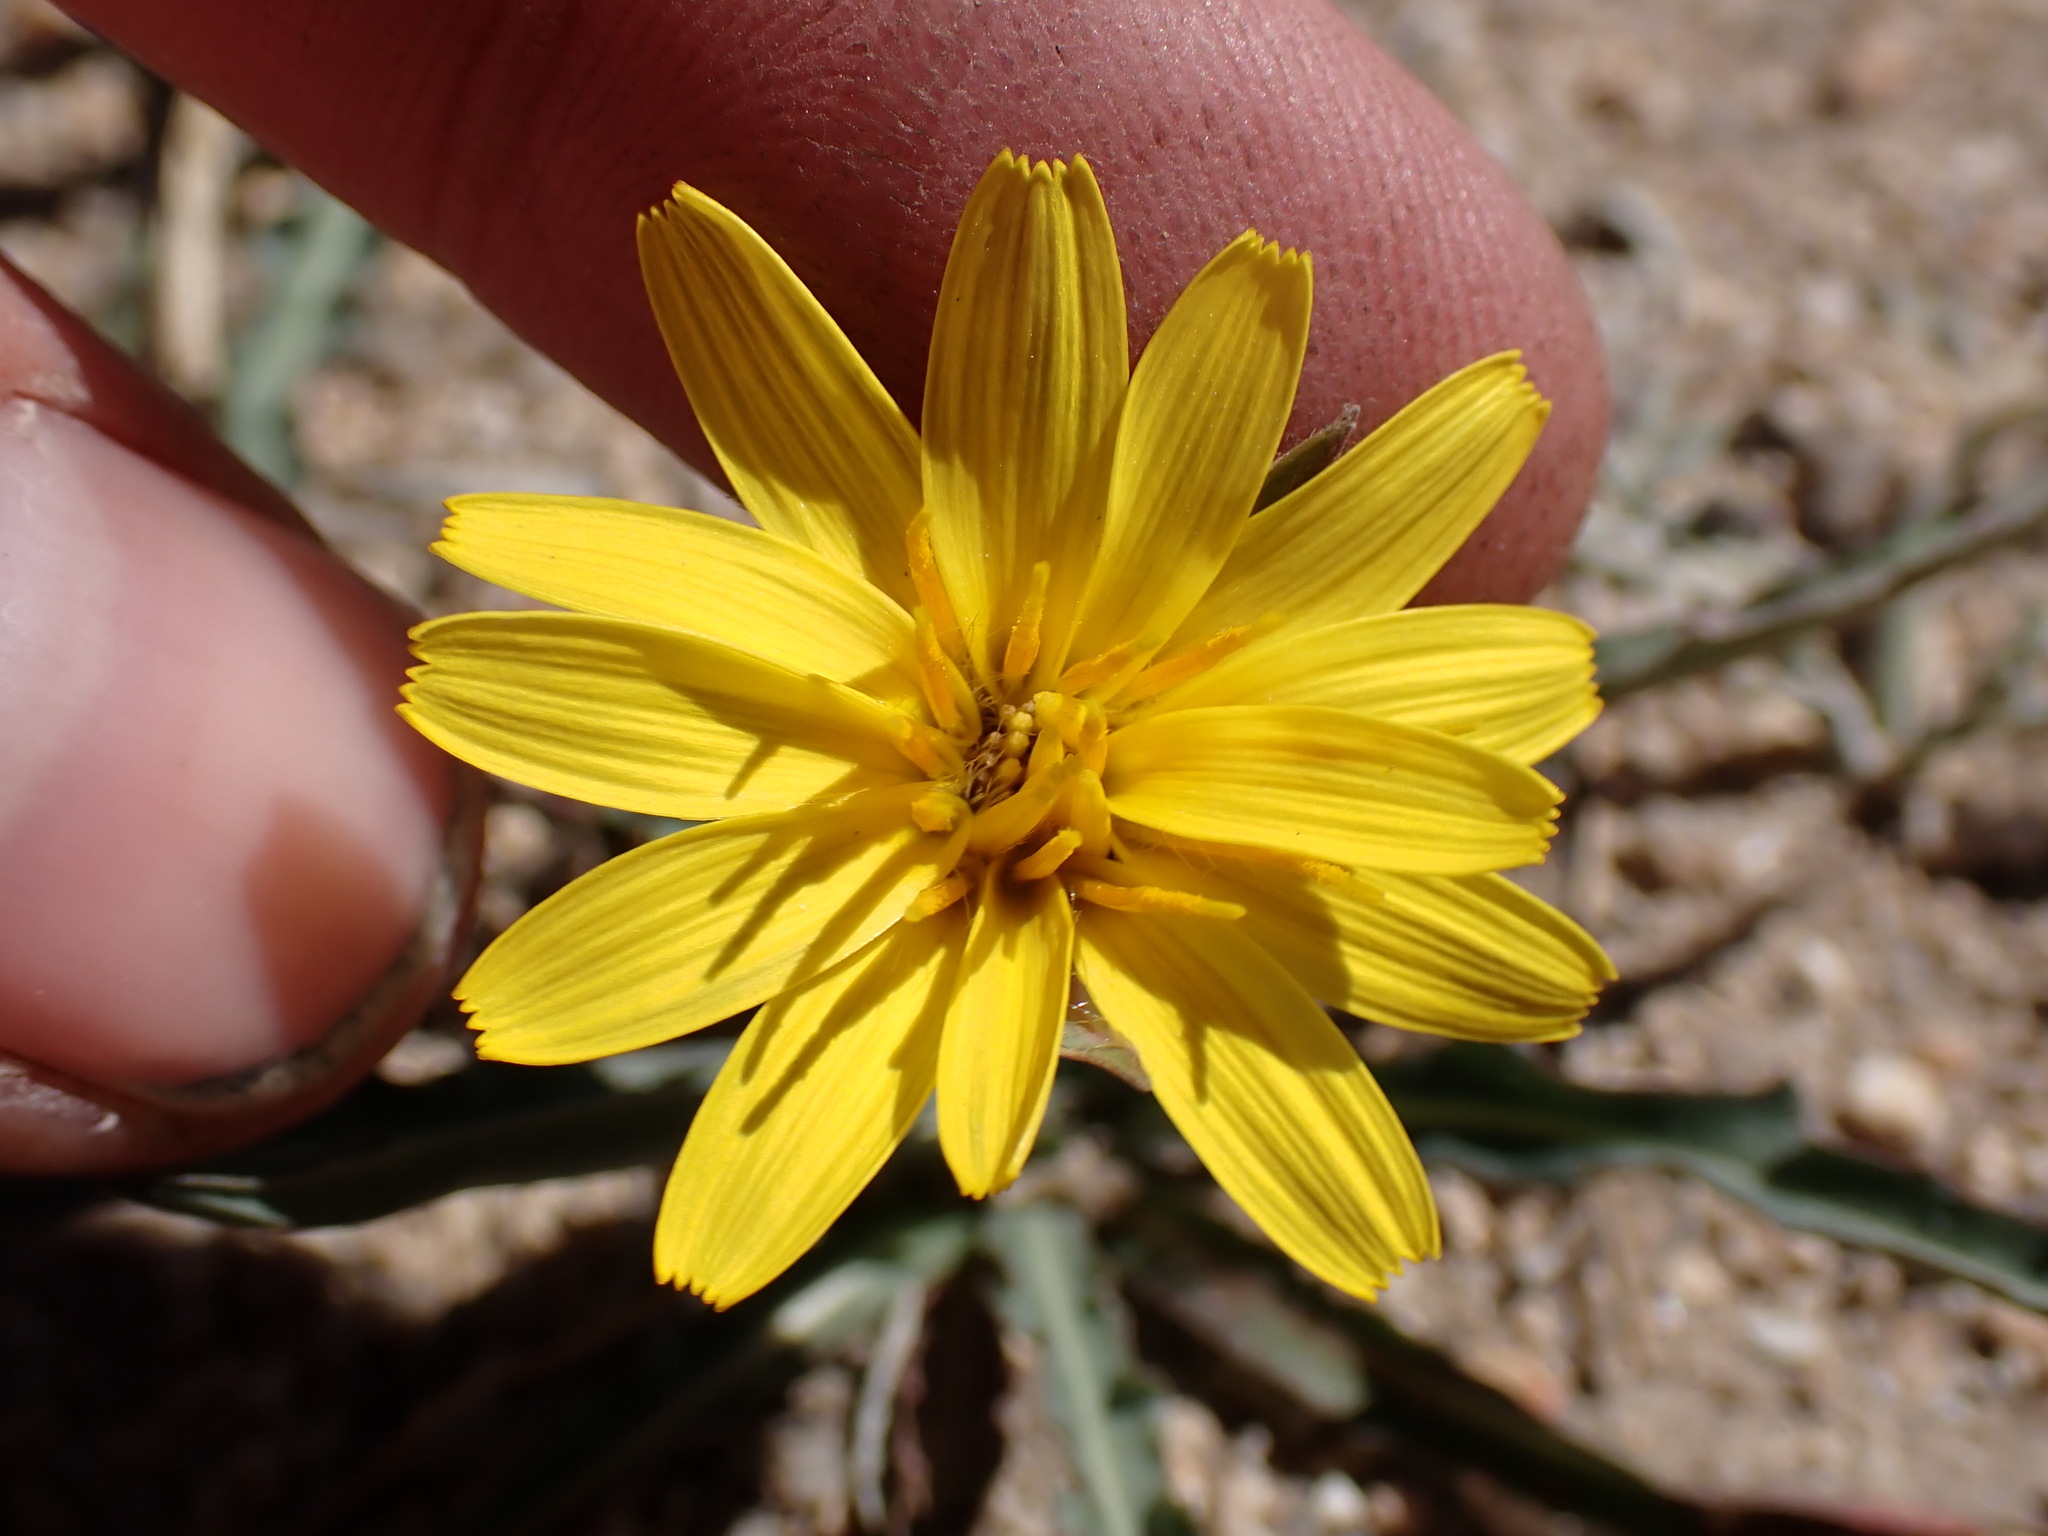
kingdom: Plantae
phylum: Tracheophyta
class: Magnoliopsida
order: Asterales
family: Asteraceae
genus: Agoseris
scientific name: Agoseris parviflora
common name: Steppe agoseris
